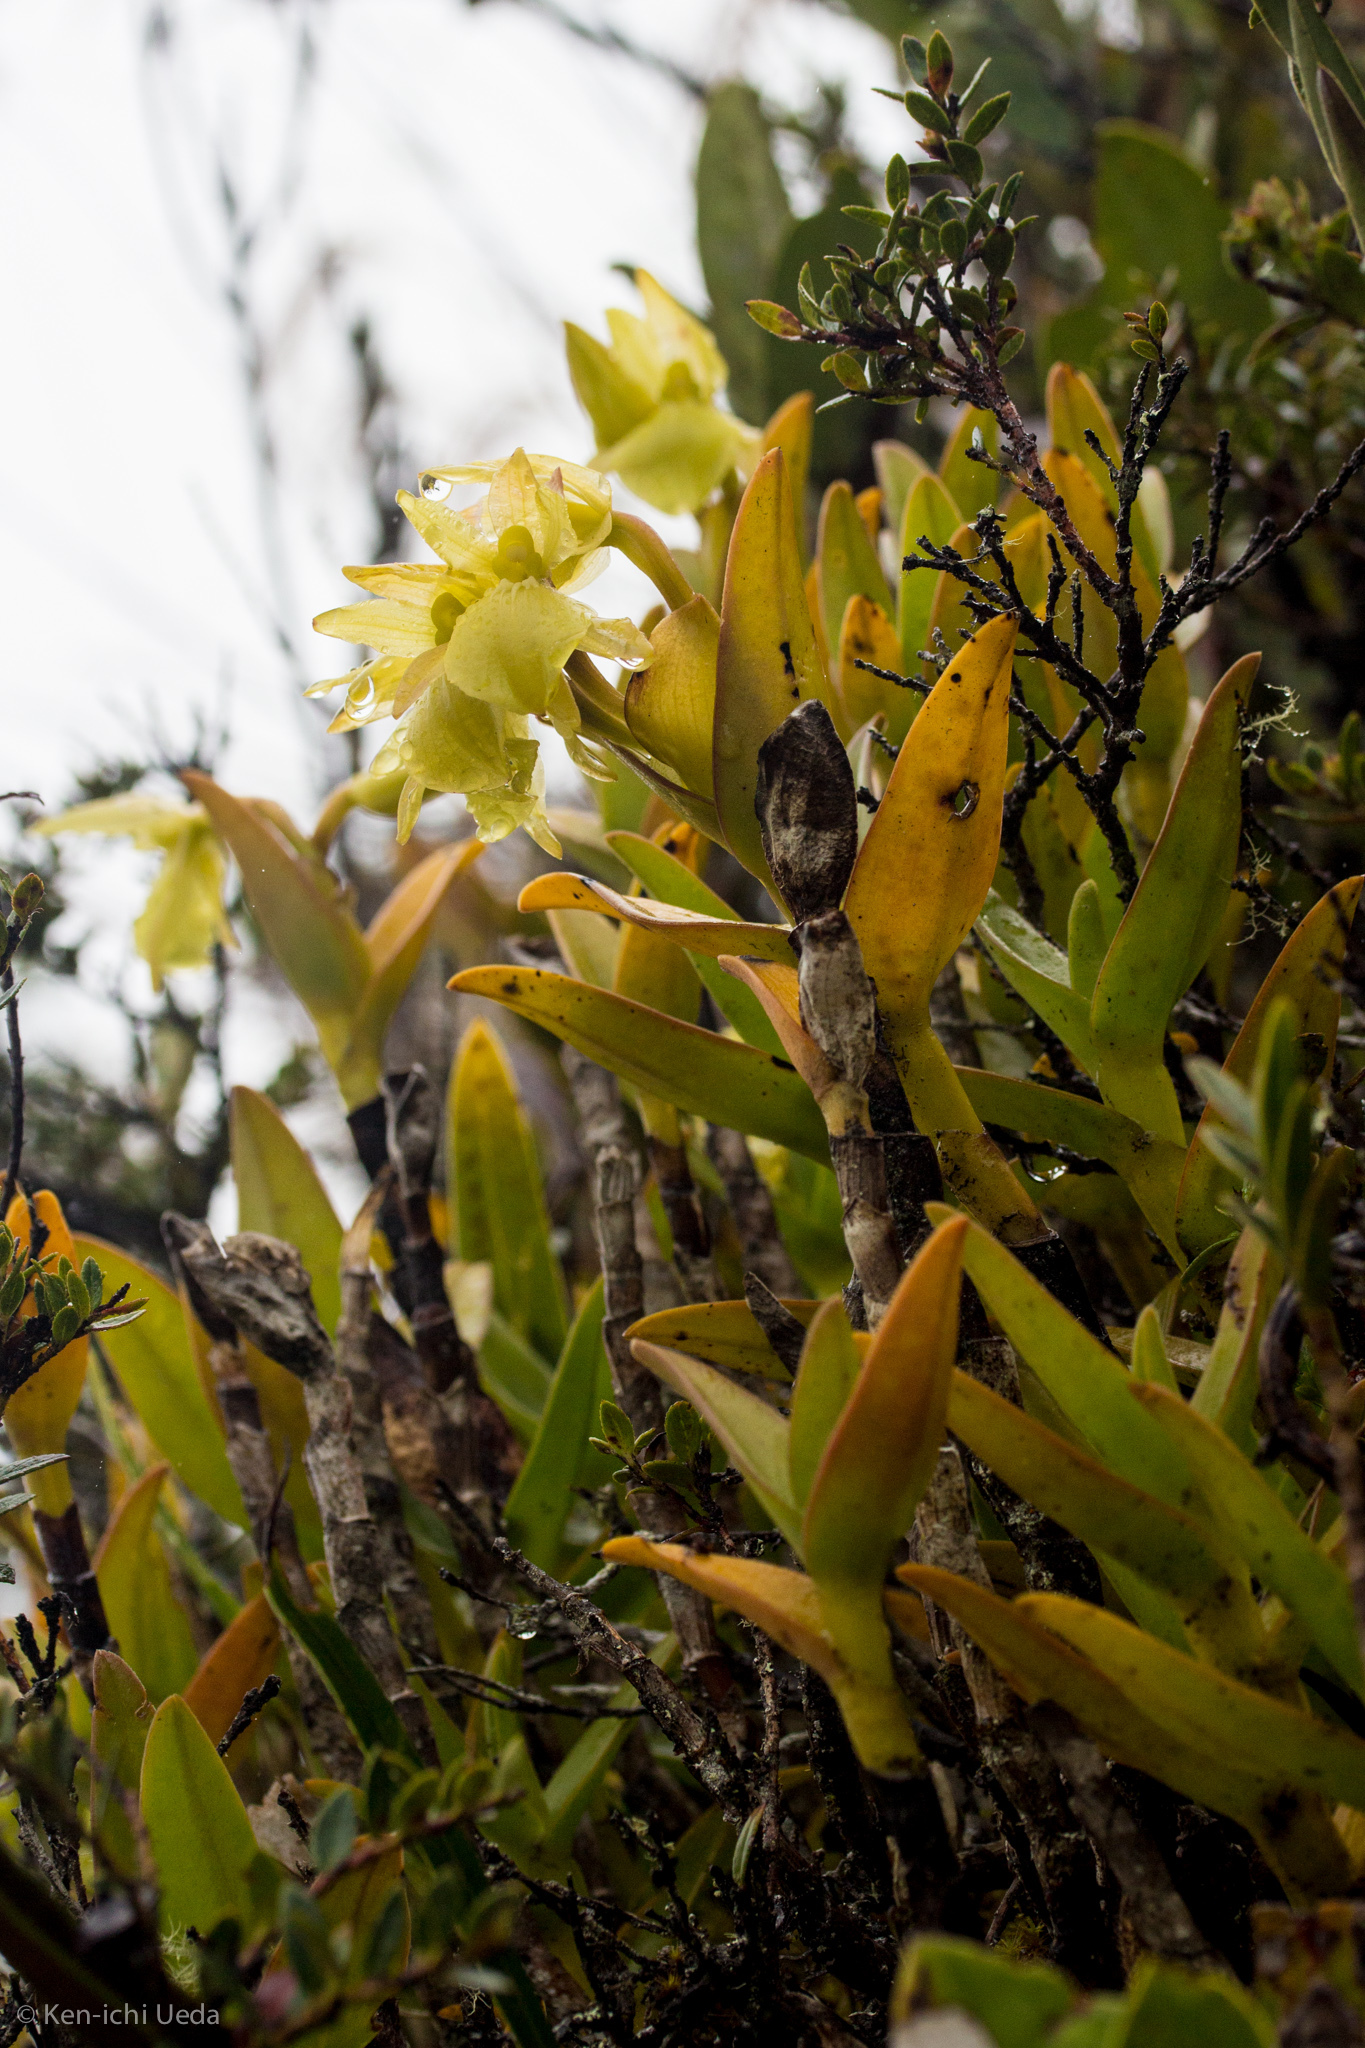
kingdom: Plantae
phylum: Tracheophyta
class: Liliopsida
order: Asparagales
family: Orchidaceae
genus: Epidendrum
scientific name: Epidendrum scutella
